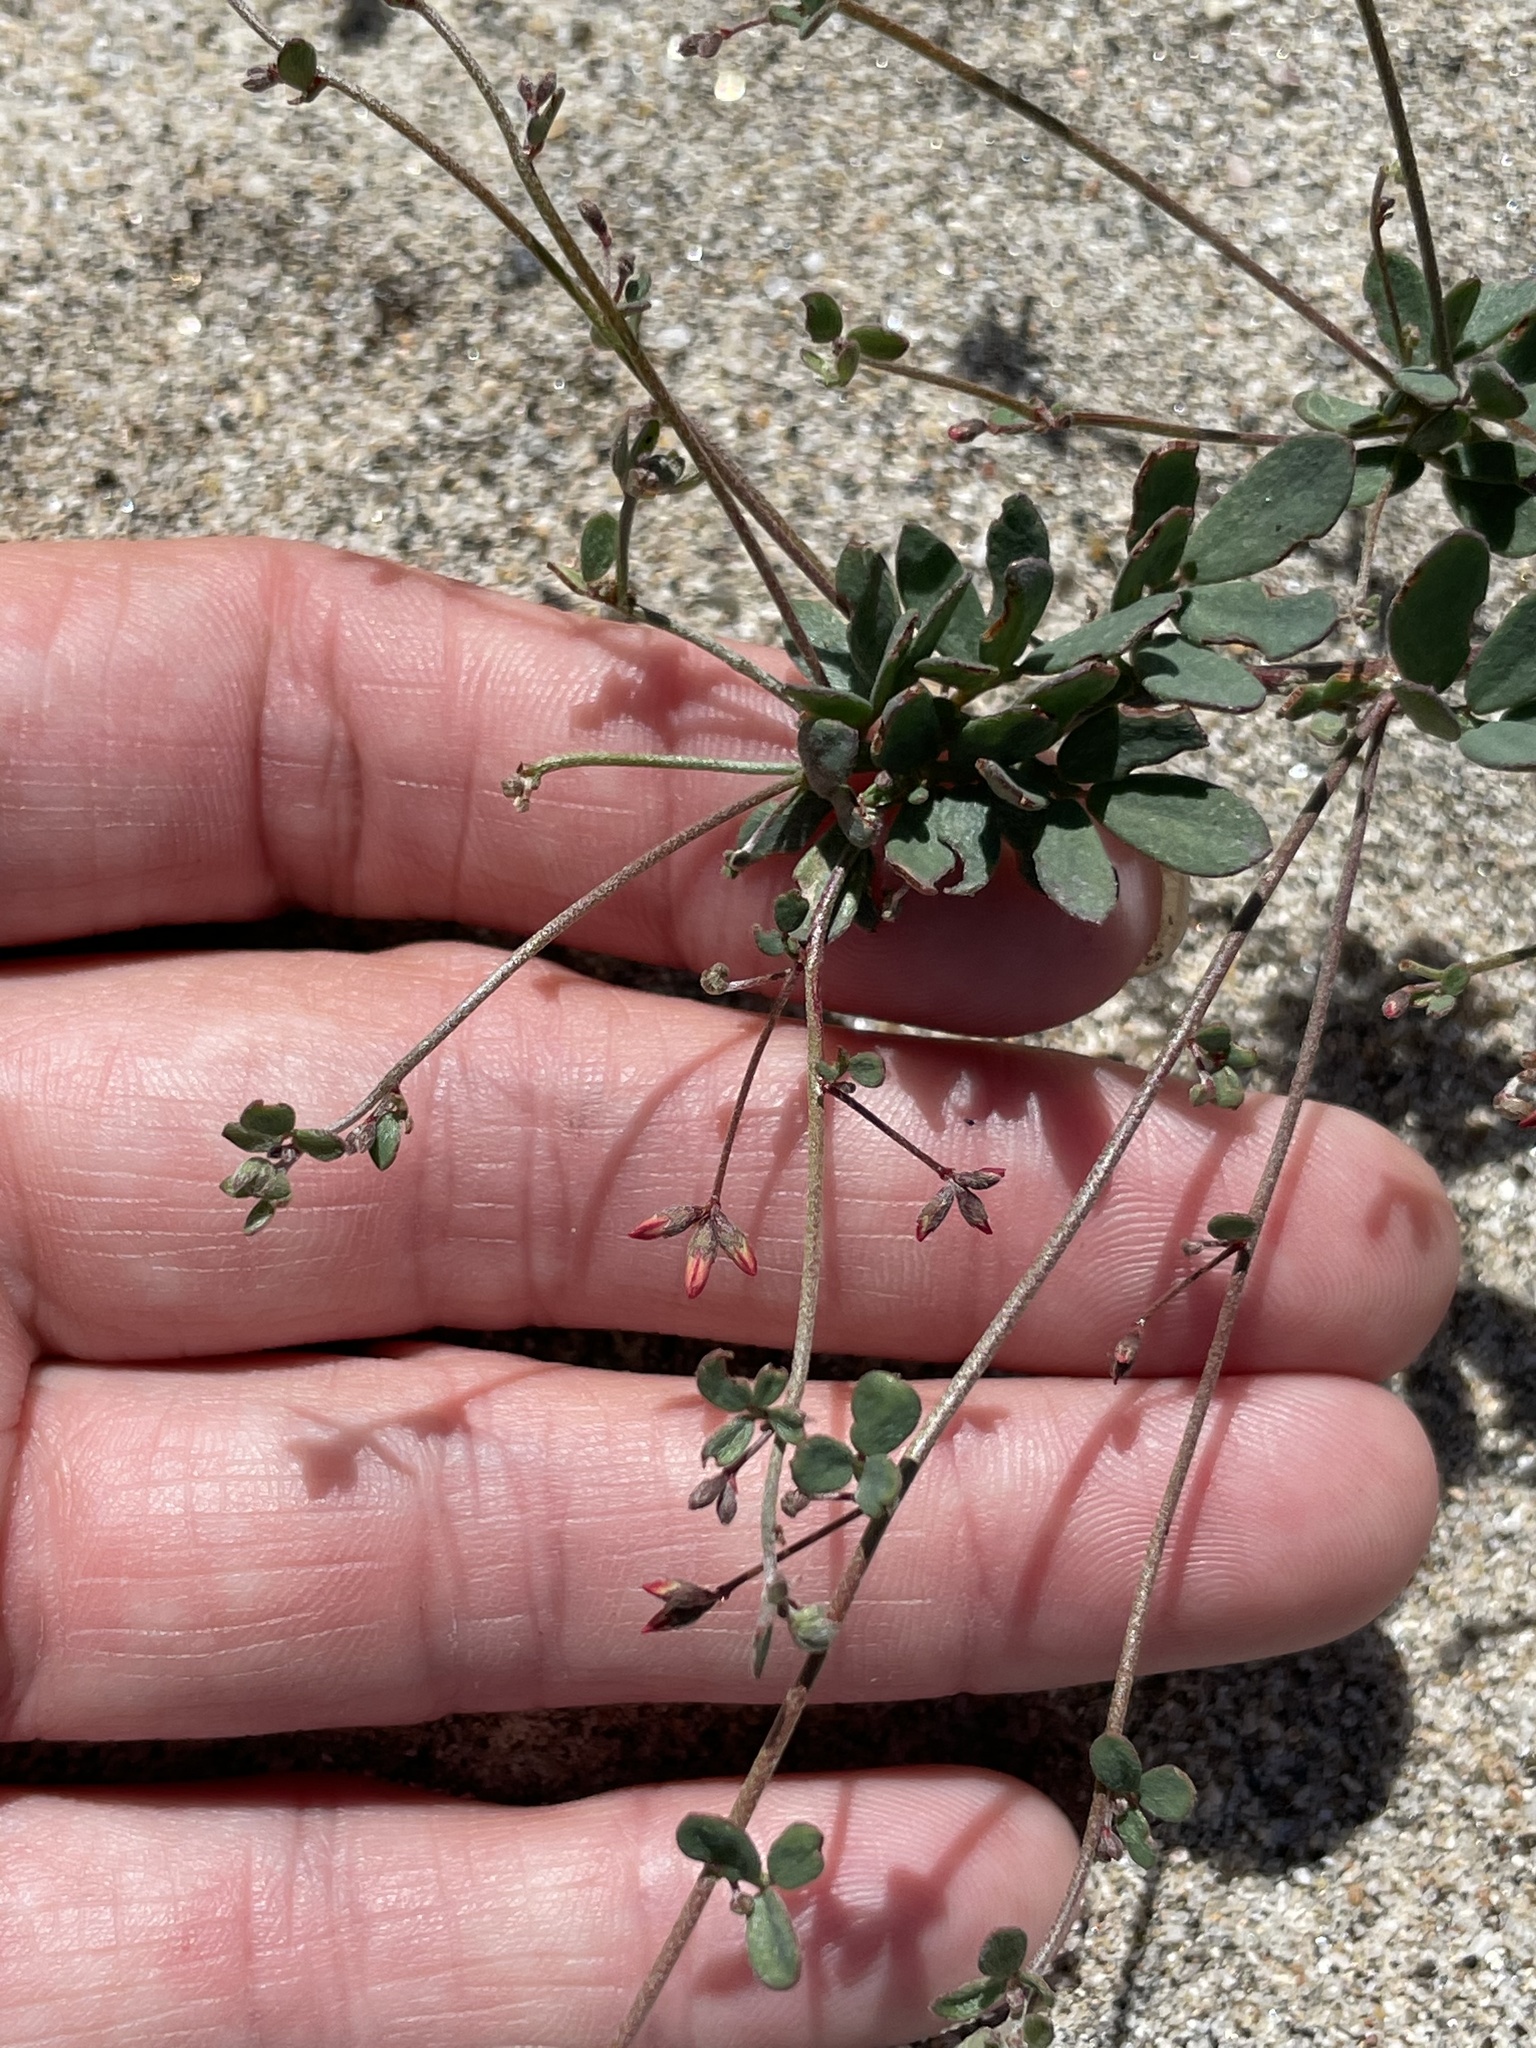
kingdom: Plantae
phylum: Tracheophyta
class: Magnoliopsida
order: Fabales
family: Fabaceae
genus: Acmispon
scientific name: Acmispon prostratus
